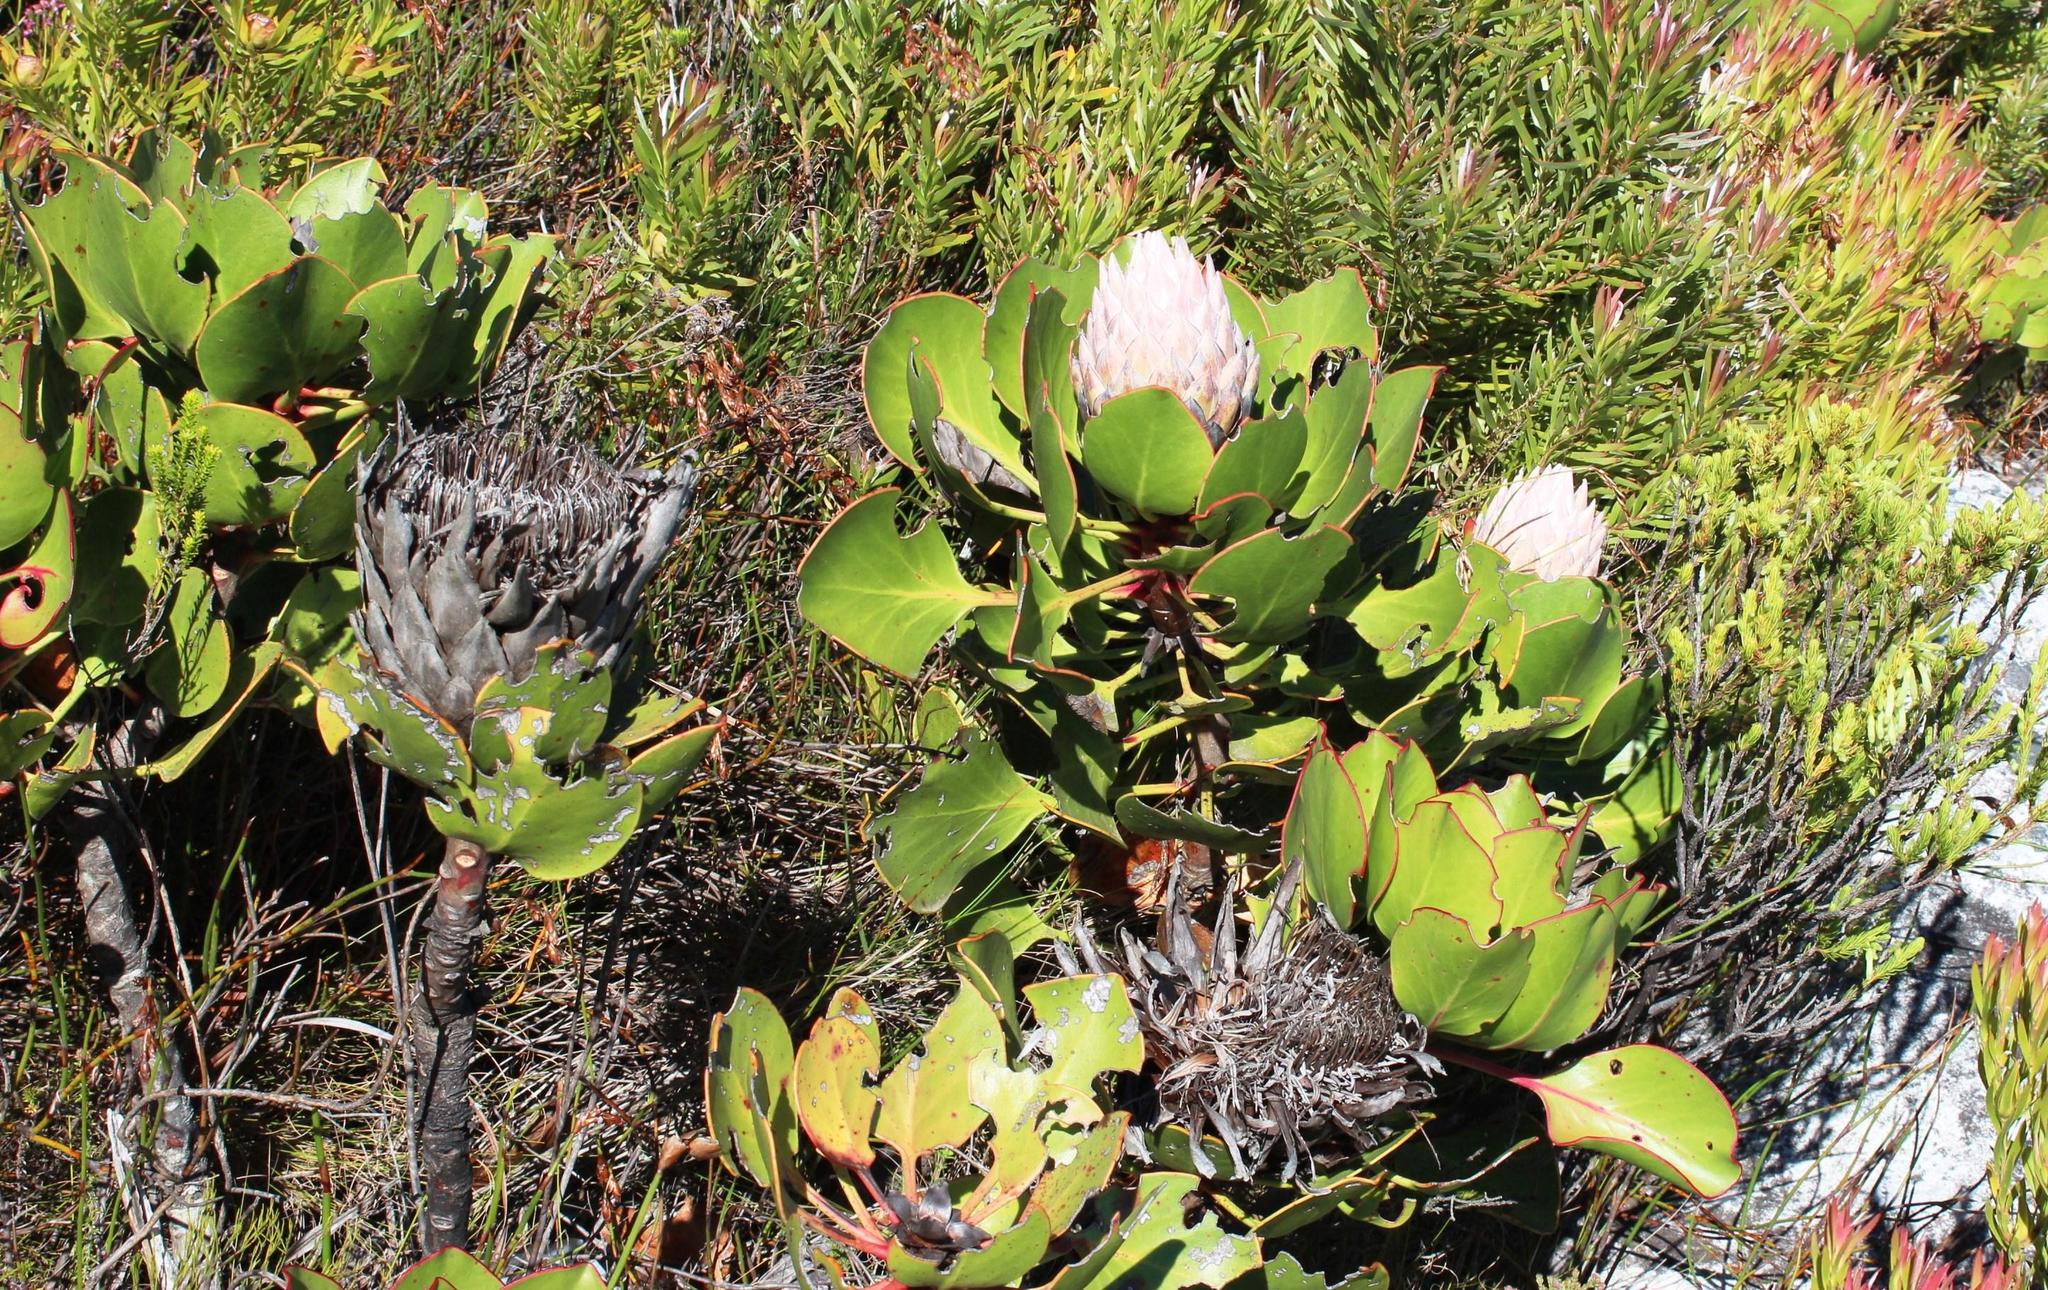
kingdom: Plantae
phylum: Tracheophyta
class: Magnoliopsida
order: Proteales
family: Proteaceae
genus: Protea
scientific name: Protea cynaroides
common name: King protea
